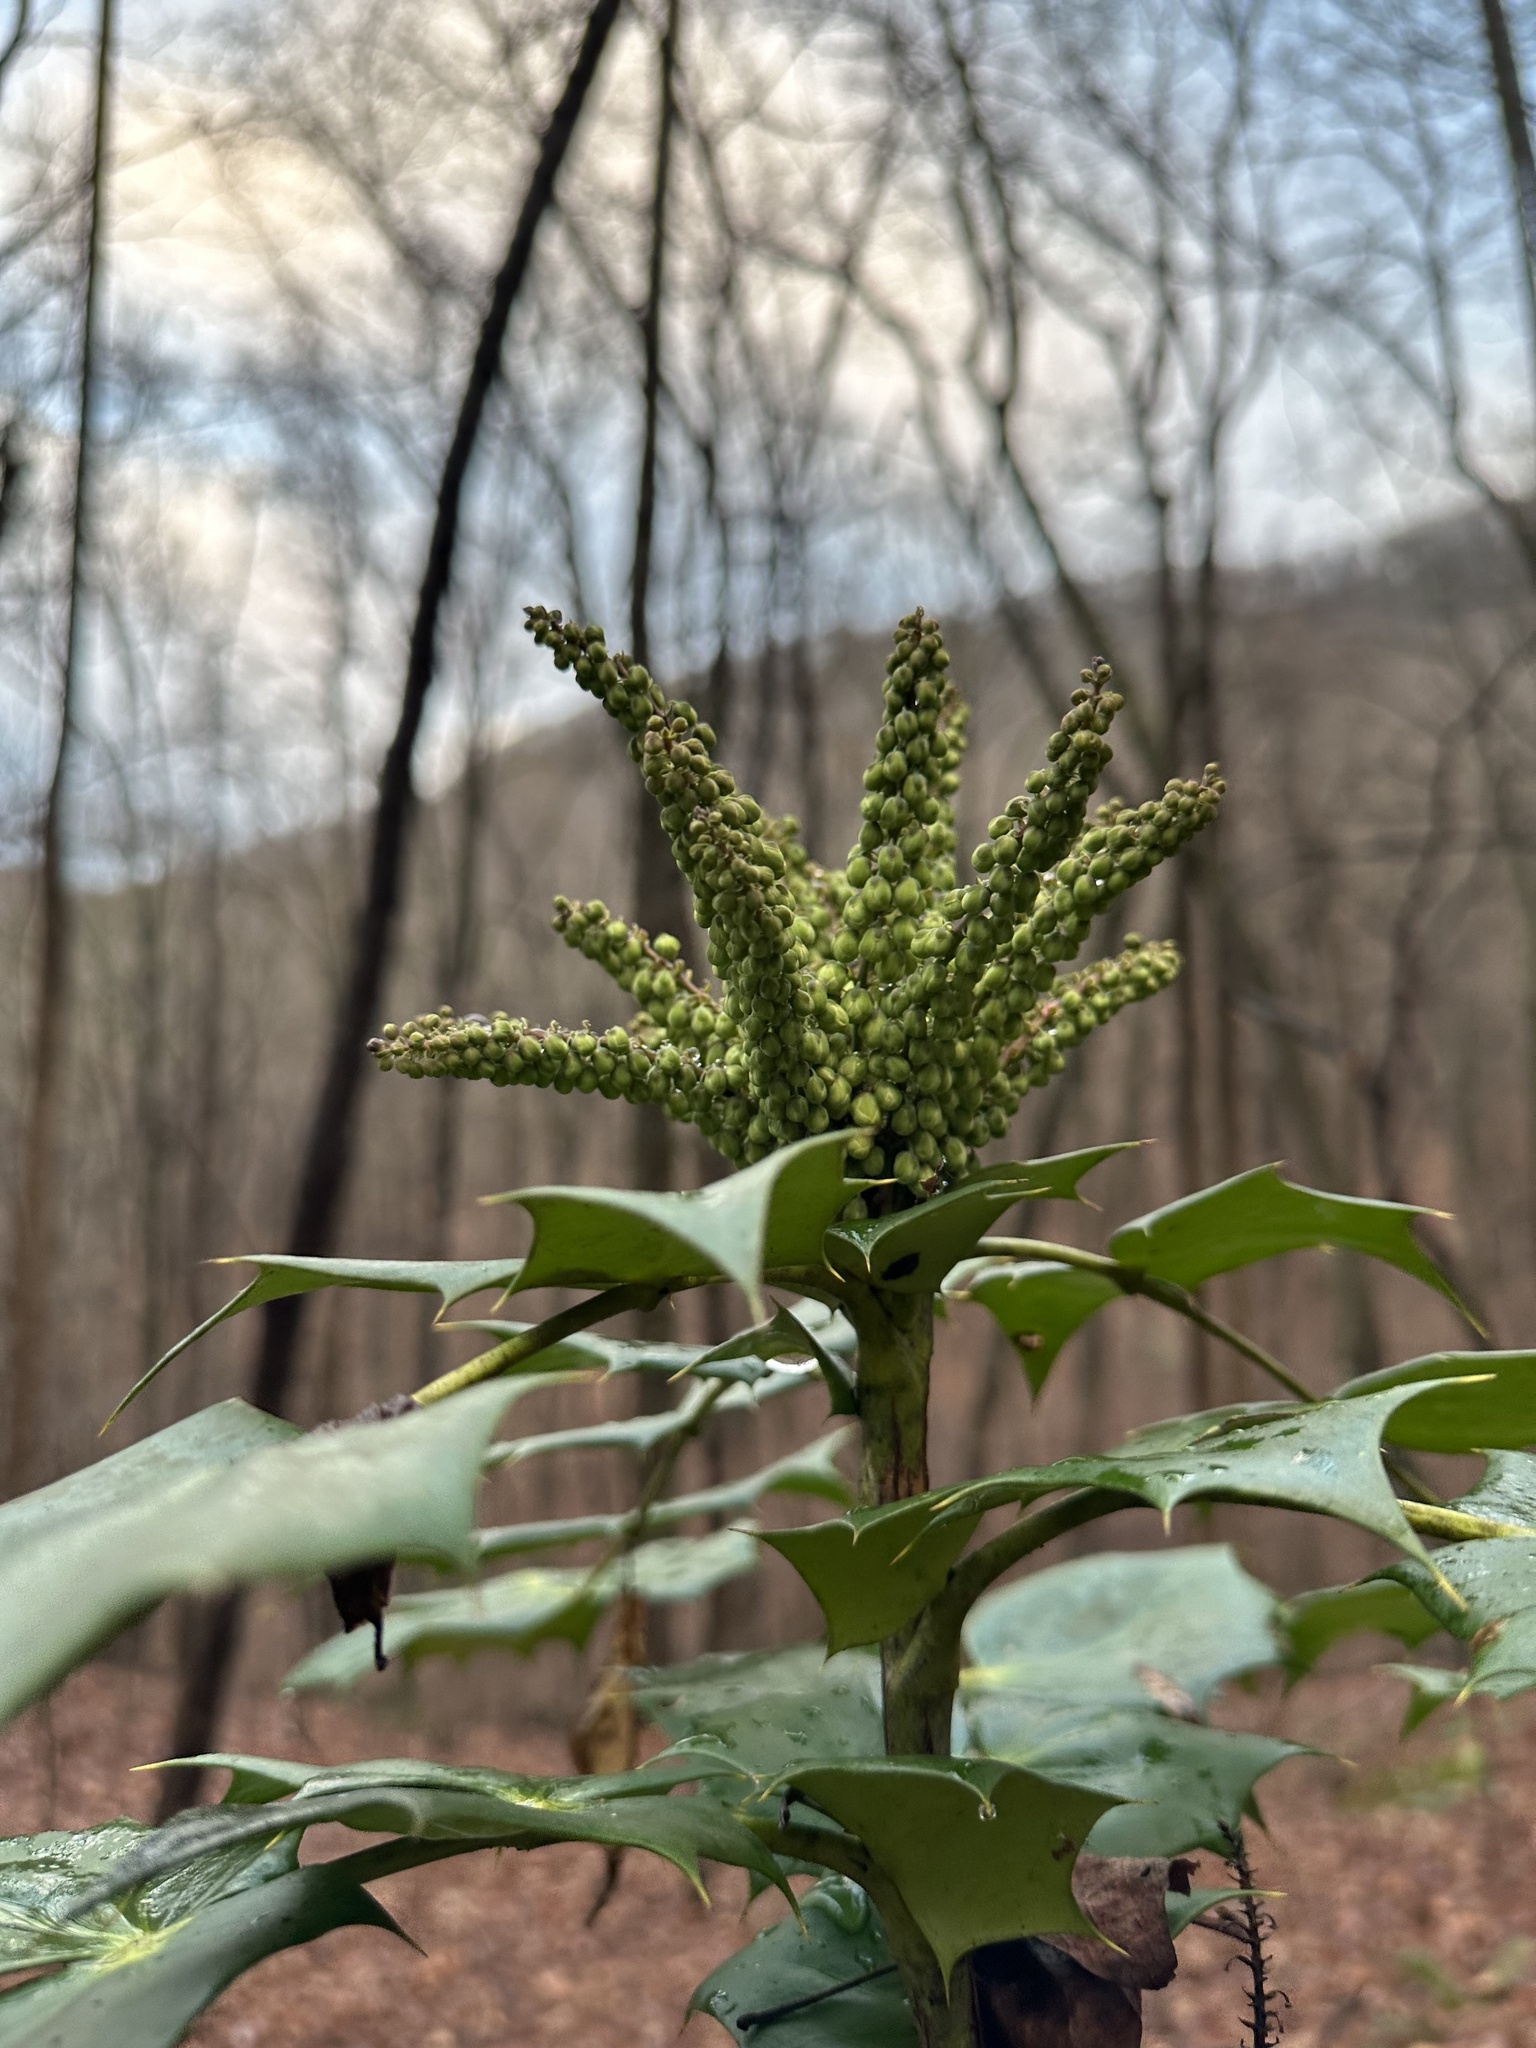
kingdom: Plantae
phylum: Tracheophyta
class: Magnoliopsida
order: Ranunculales
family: Berberidaceae
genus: Mahonia
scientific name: Mahonia bealei
